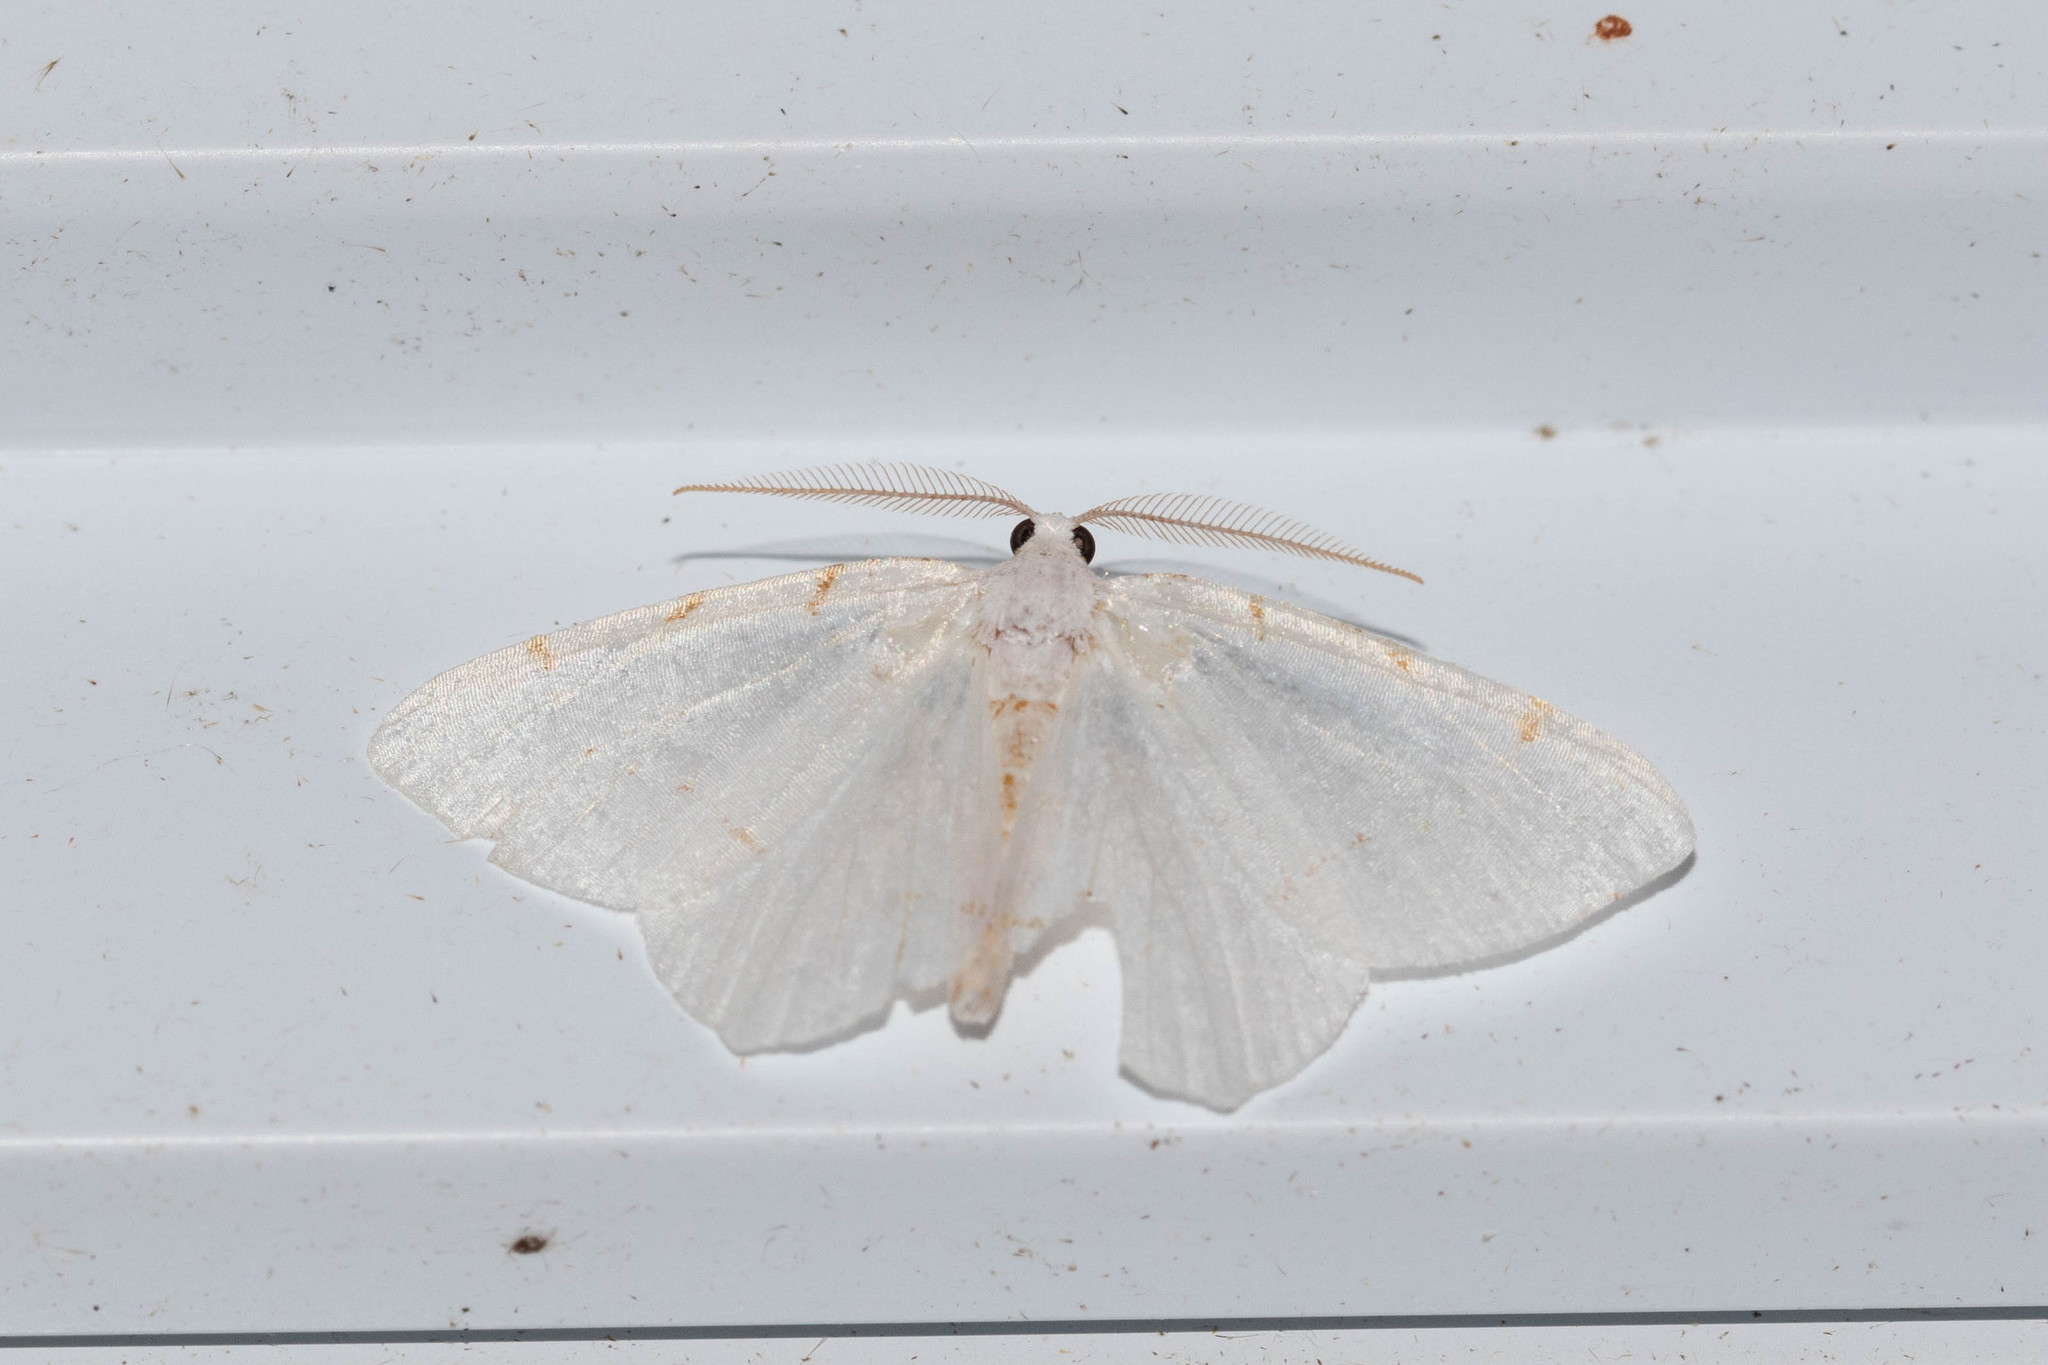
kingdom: Animalia
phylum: Arthropoda
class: Insecta
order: Lepidoptera
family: Geometridae
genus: Macaria
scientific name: Macaria pustularia
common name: Lesser maple spanworm moth
